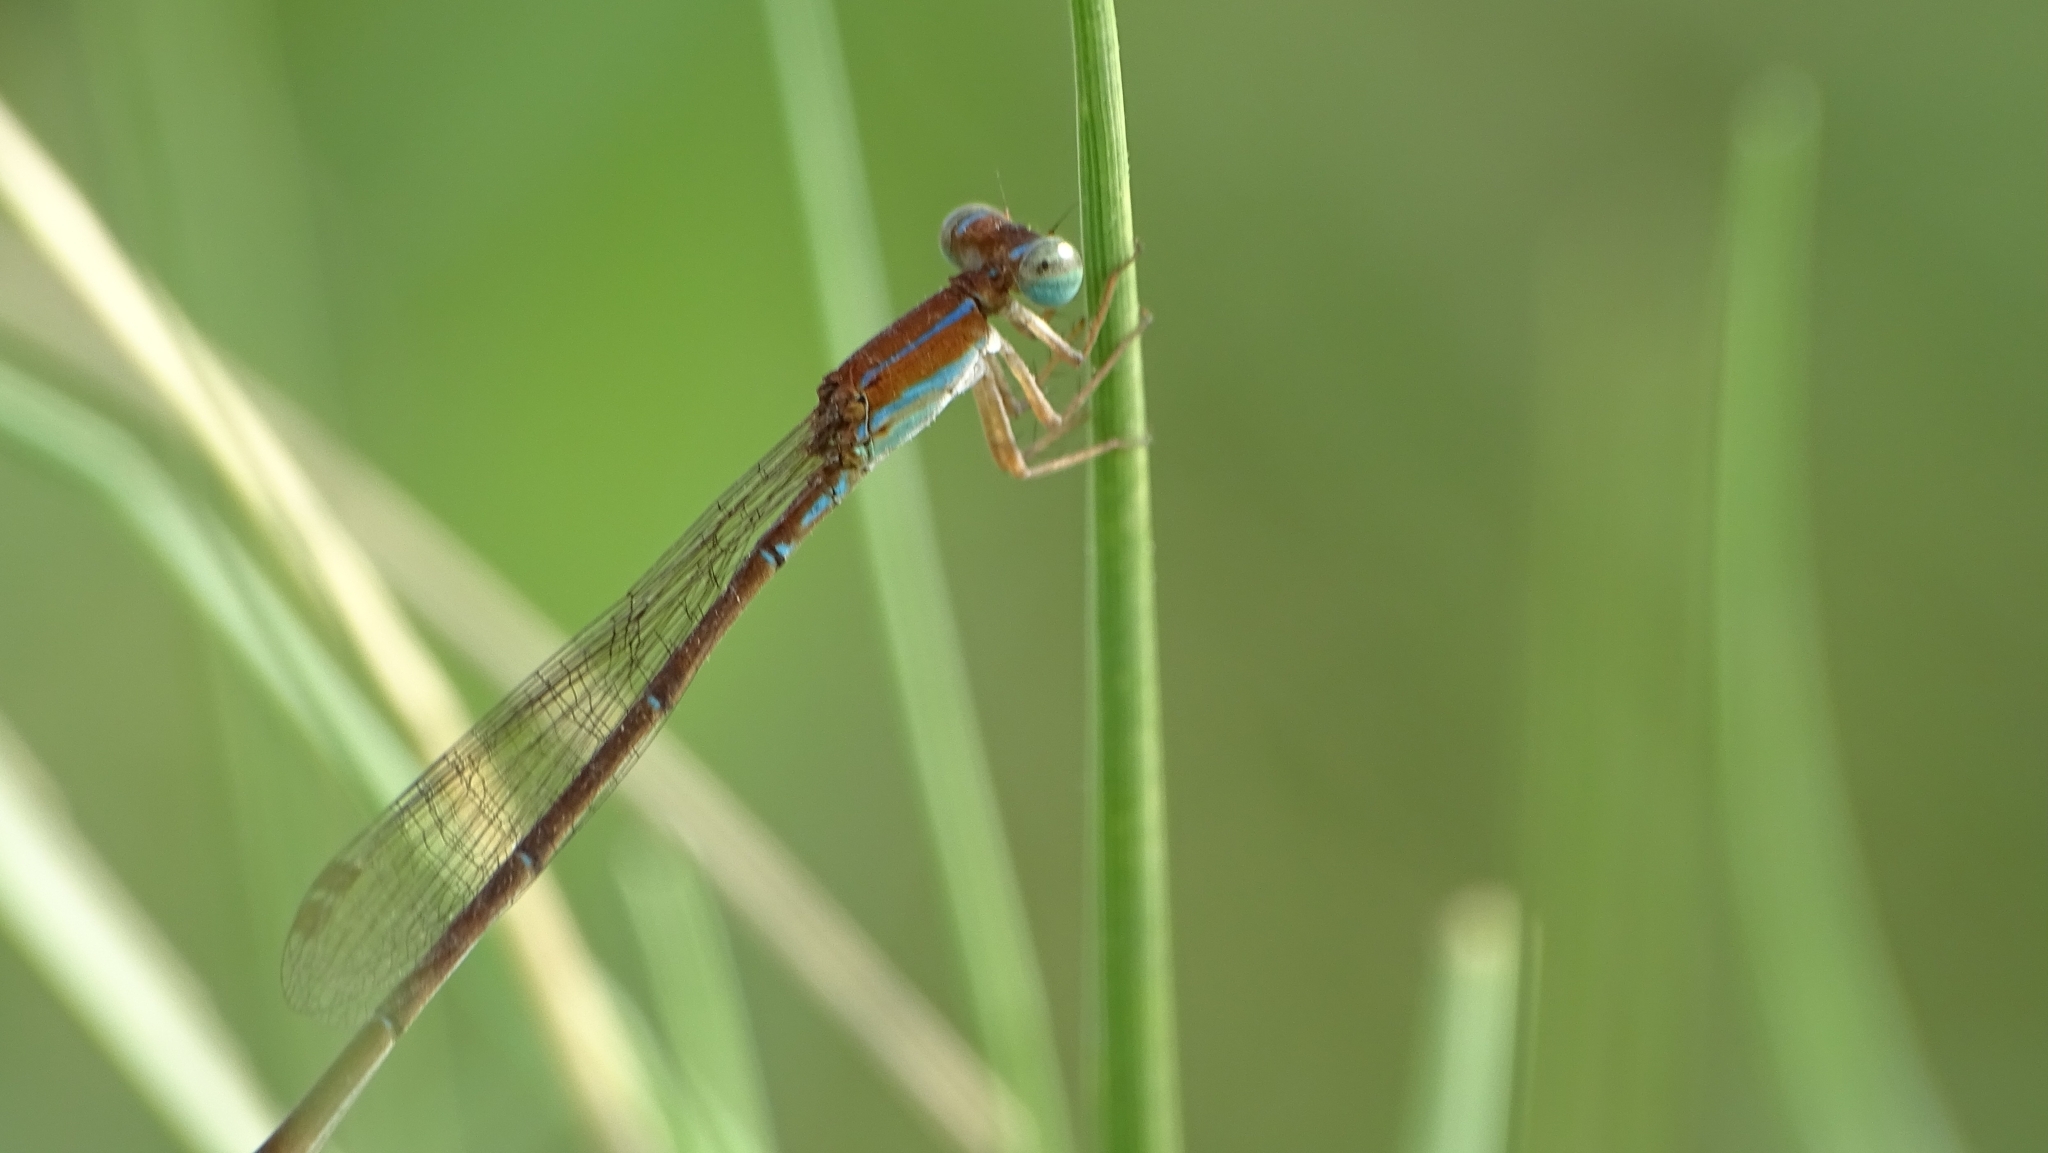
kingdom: Animalia
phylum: Arthropoda
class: Insecta
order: Odonata
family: Coenagrionidae
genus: Mortonagrion
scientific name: Mortonagrion varralli
